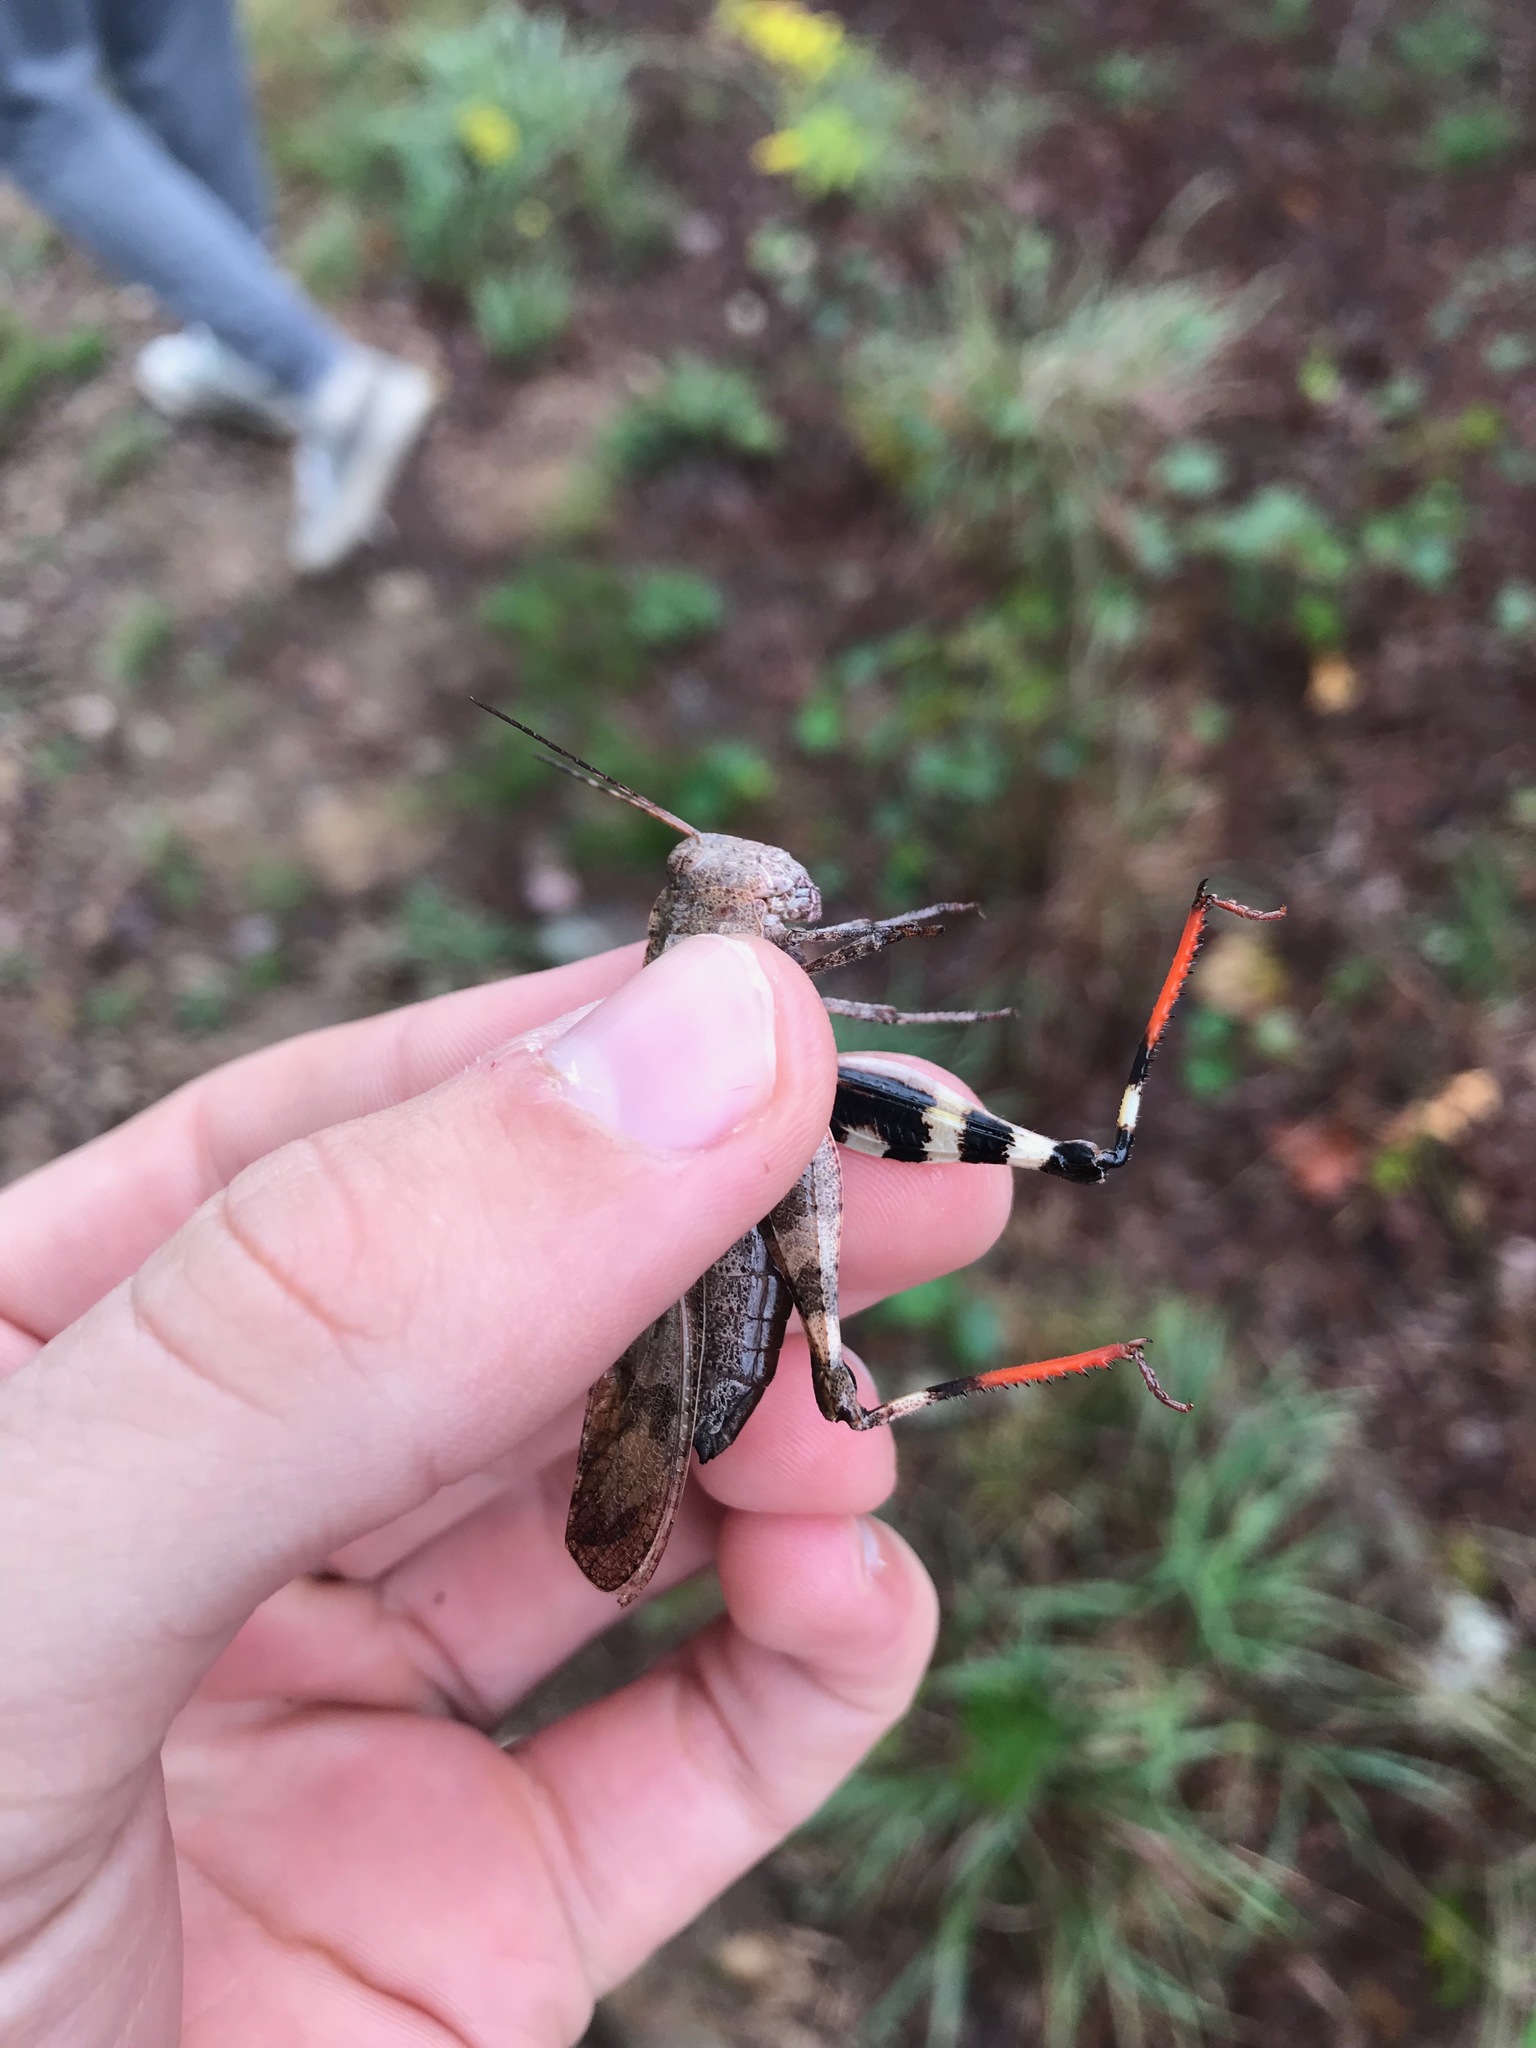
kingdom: Animalia
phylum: Arthropoda
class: Insecta
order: Orthoptera
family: Acrididae
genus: Spharagemon
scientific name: Spharagemon bolli
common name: Boll's grasshopper
